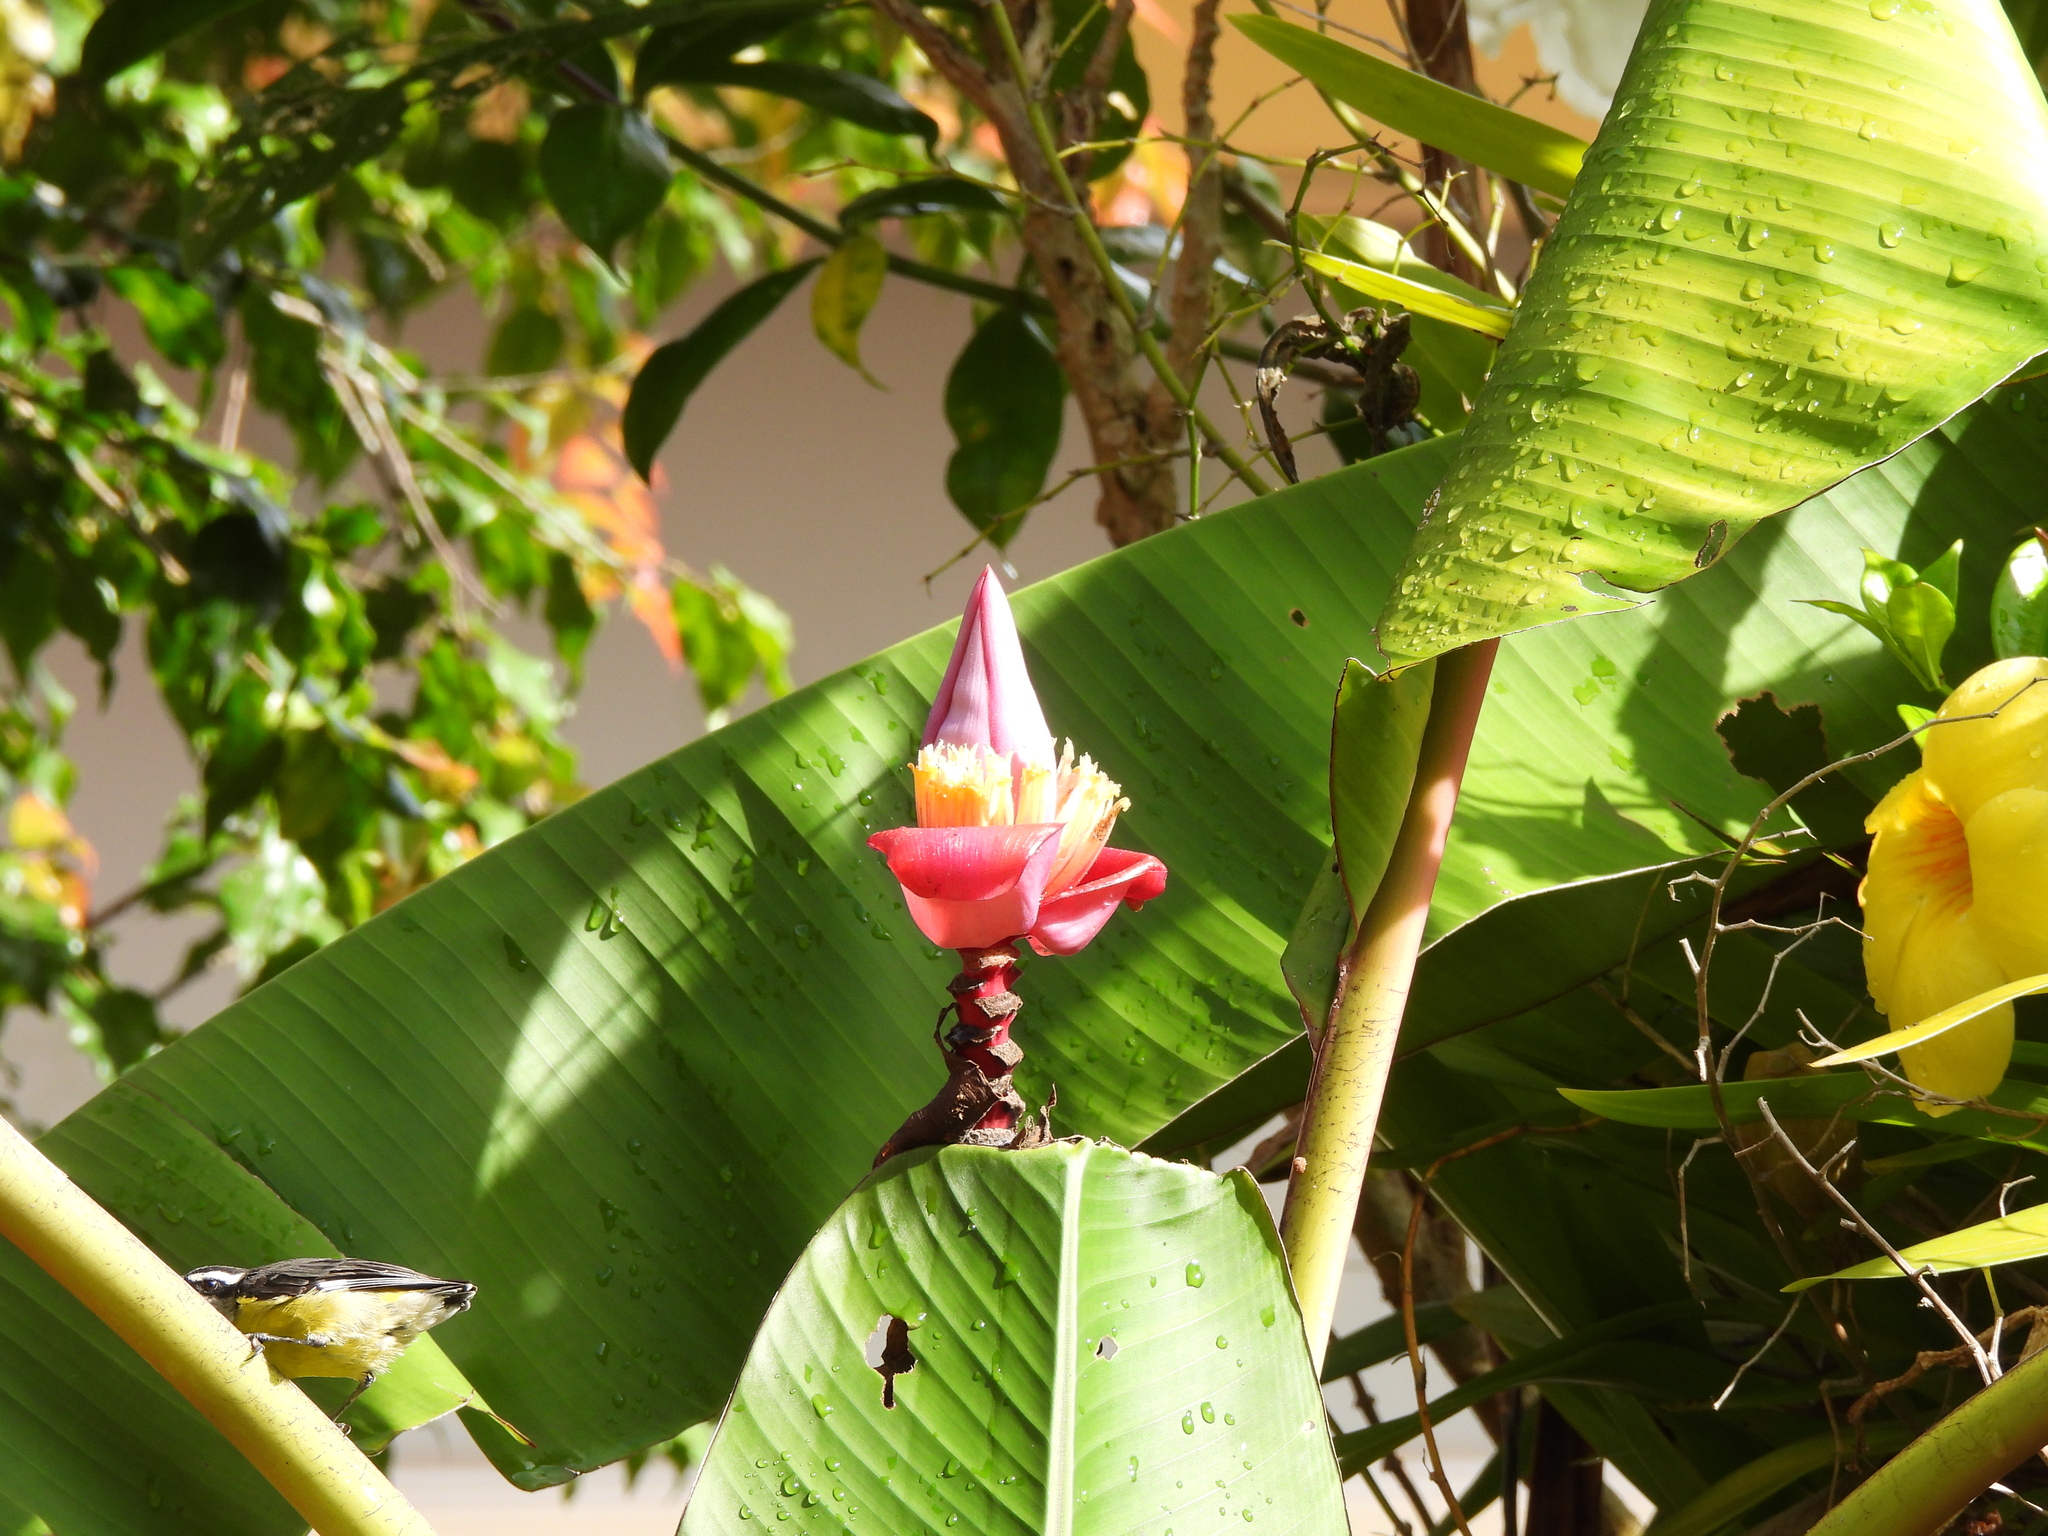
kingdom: Animalia
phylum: Chordata
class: Aves
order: Passeriformes
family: Thraupidae
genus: Coereba
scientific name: Coereba flaveola
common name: Bananaquit
